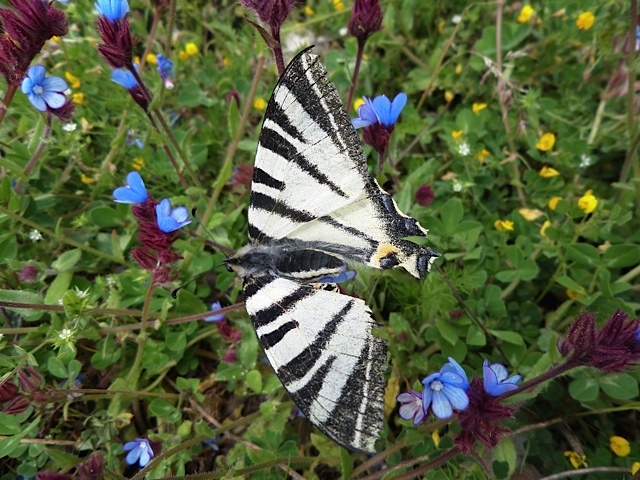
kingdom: Animalia
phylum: Arthropoda
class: Insecta
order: Lepidoptera
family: Papilionidae
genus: Iphiclides
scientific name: Iphiclides podalirius
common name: Scarce swallowtail
